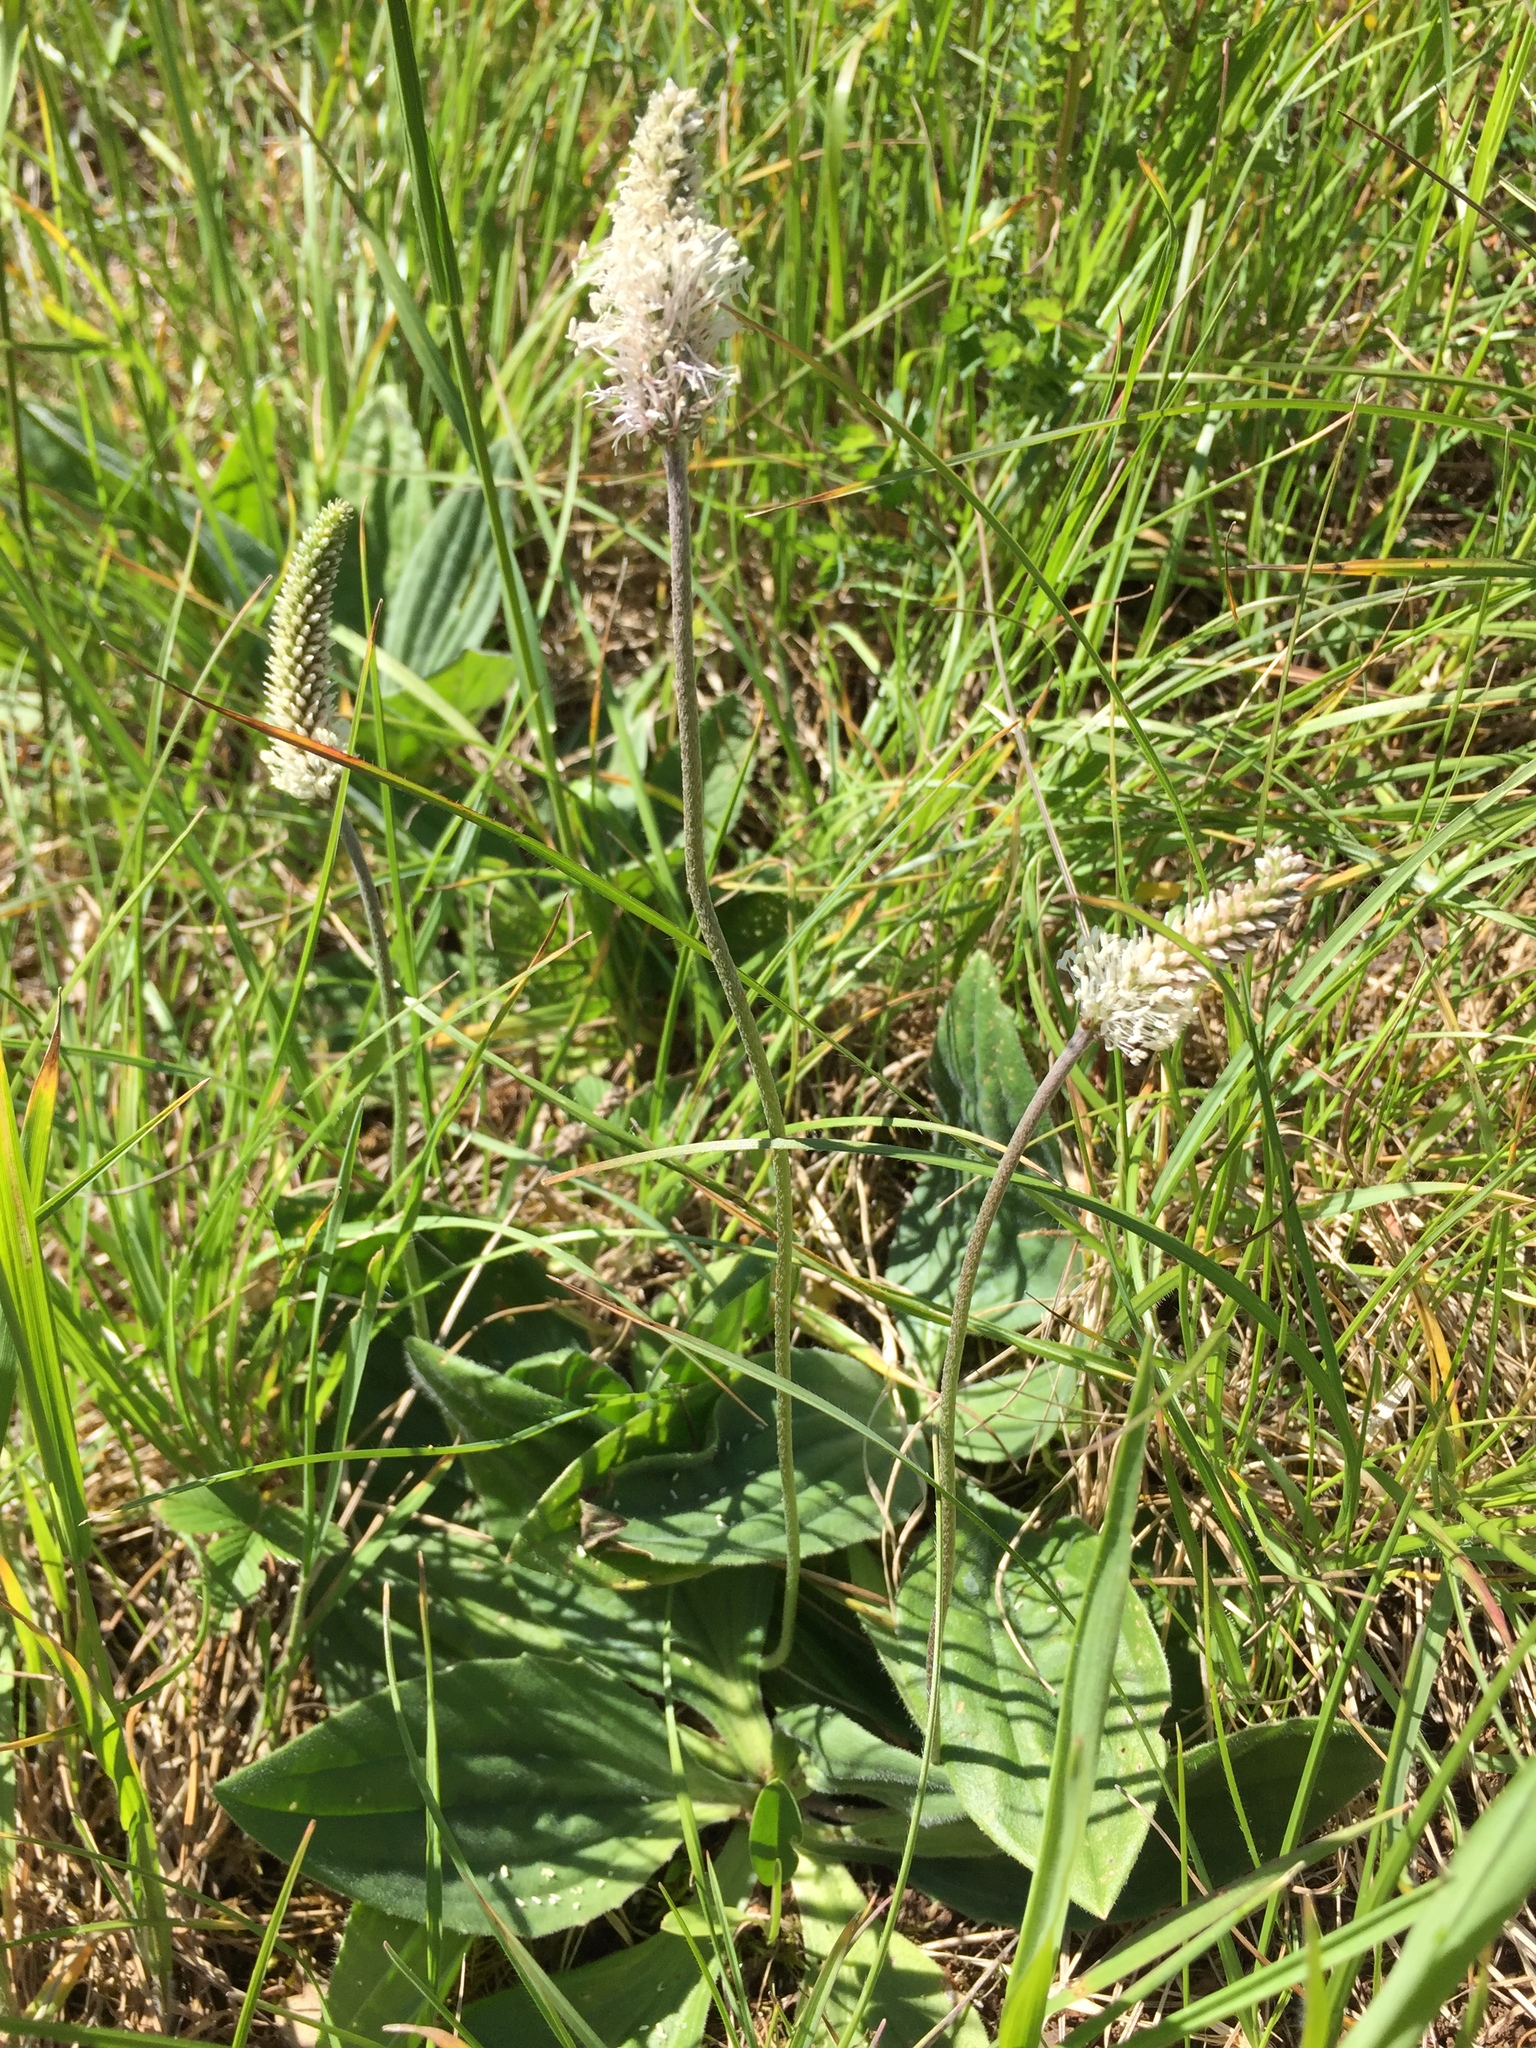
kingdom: Plantae
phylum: Tracheophyta
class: Magnoliopsida
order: Lamiales
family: Plantaginaceae
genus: Plantago
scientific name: Plantago media
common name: Hoary plantain
